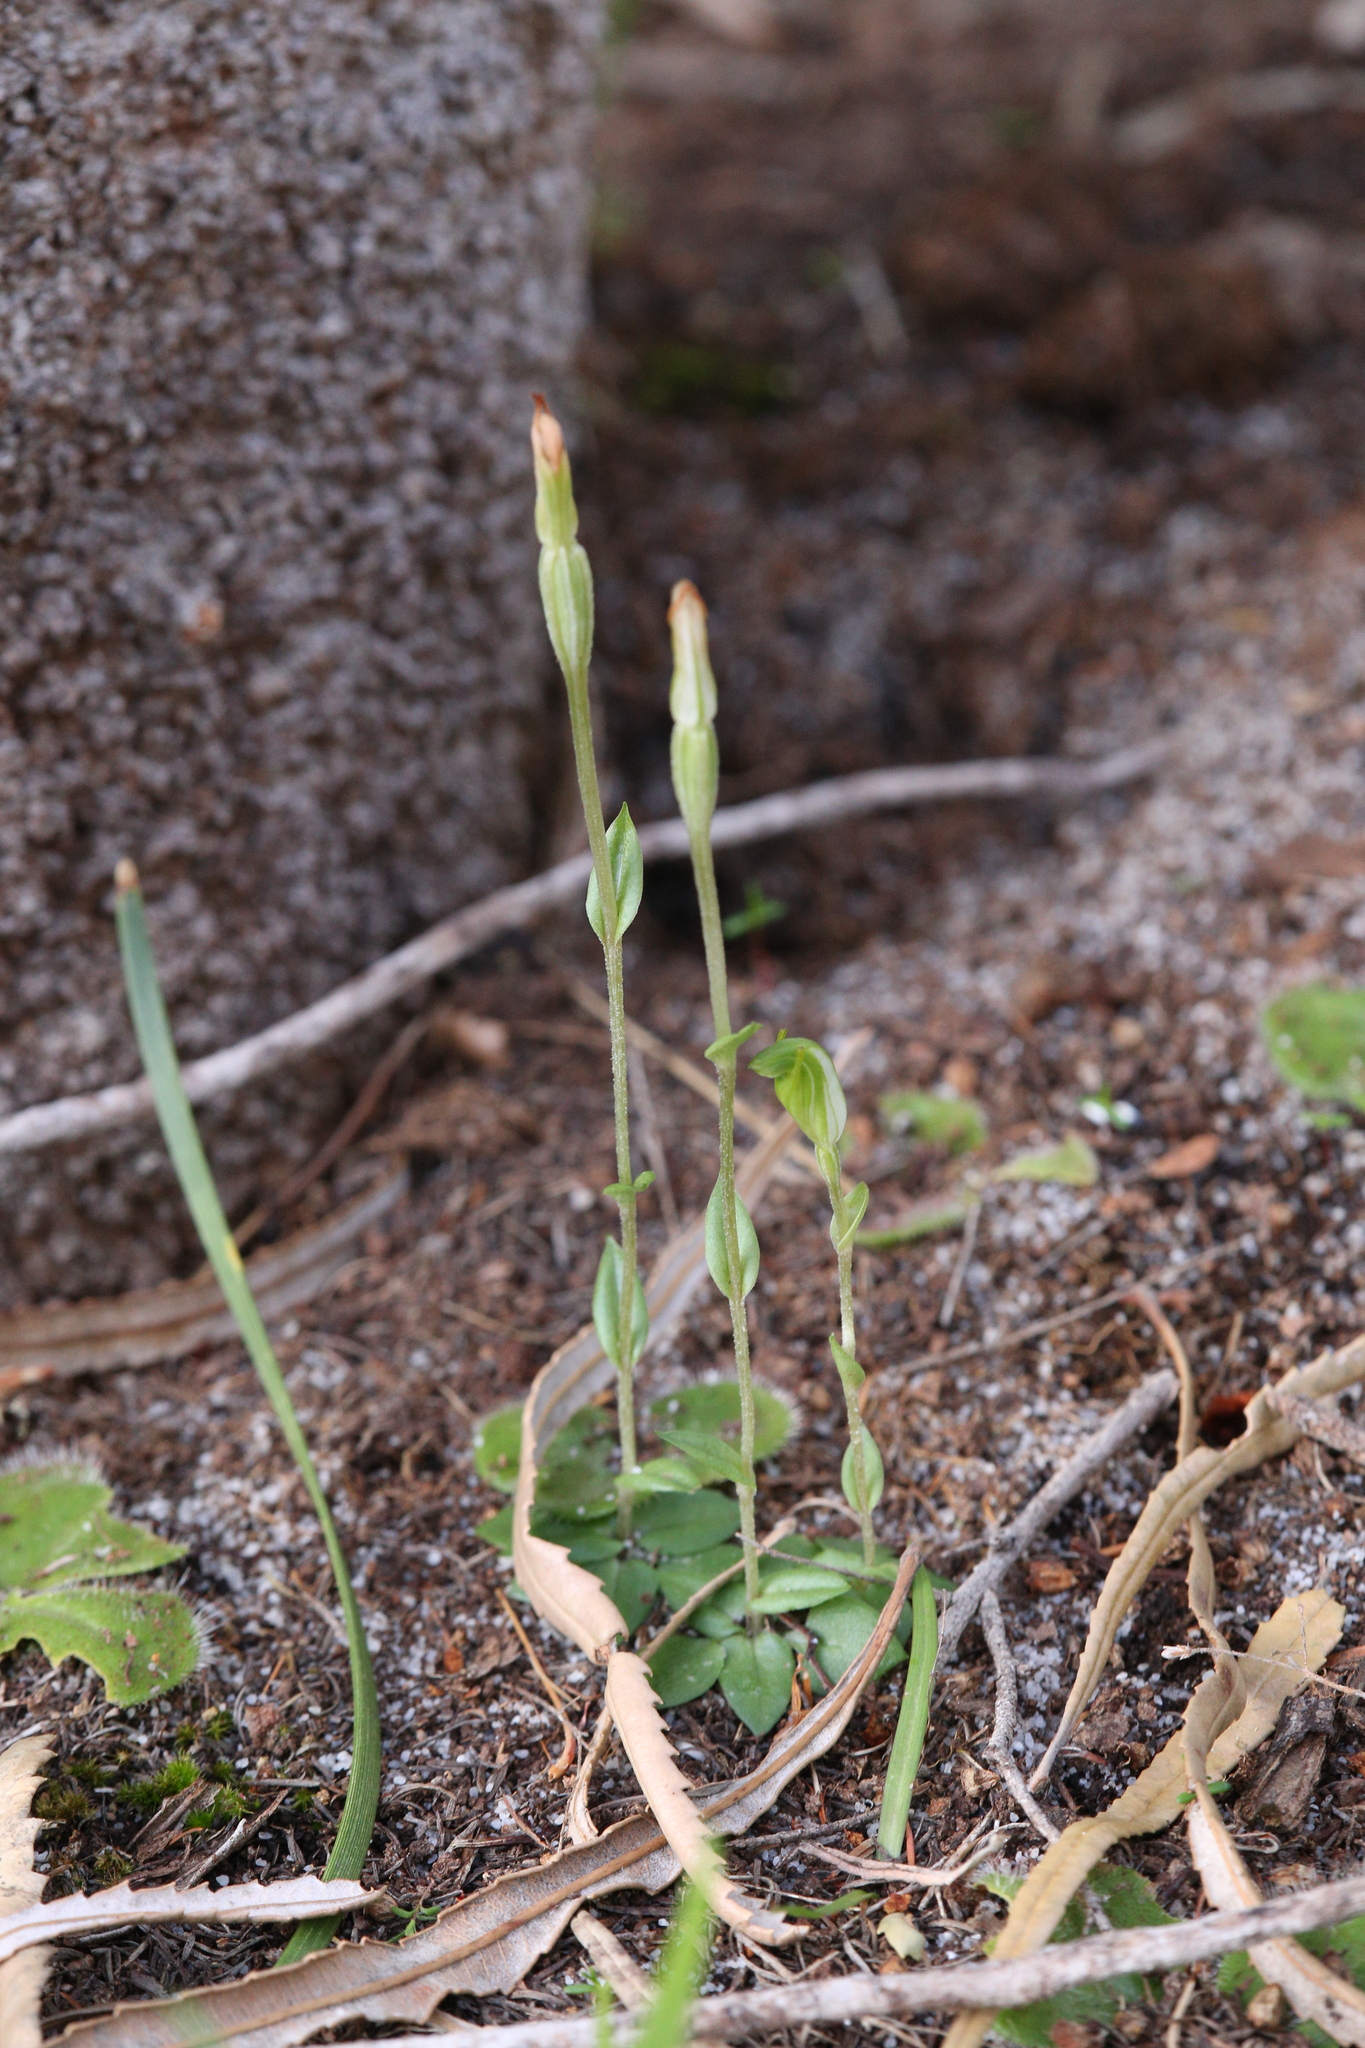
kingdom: Plantae
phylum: Tracheophyta
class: Liliopsida
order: Asparagales
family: Orchidaceae
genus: Pterostylis
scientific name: Pterostylis ectypha
